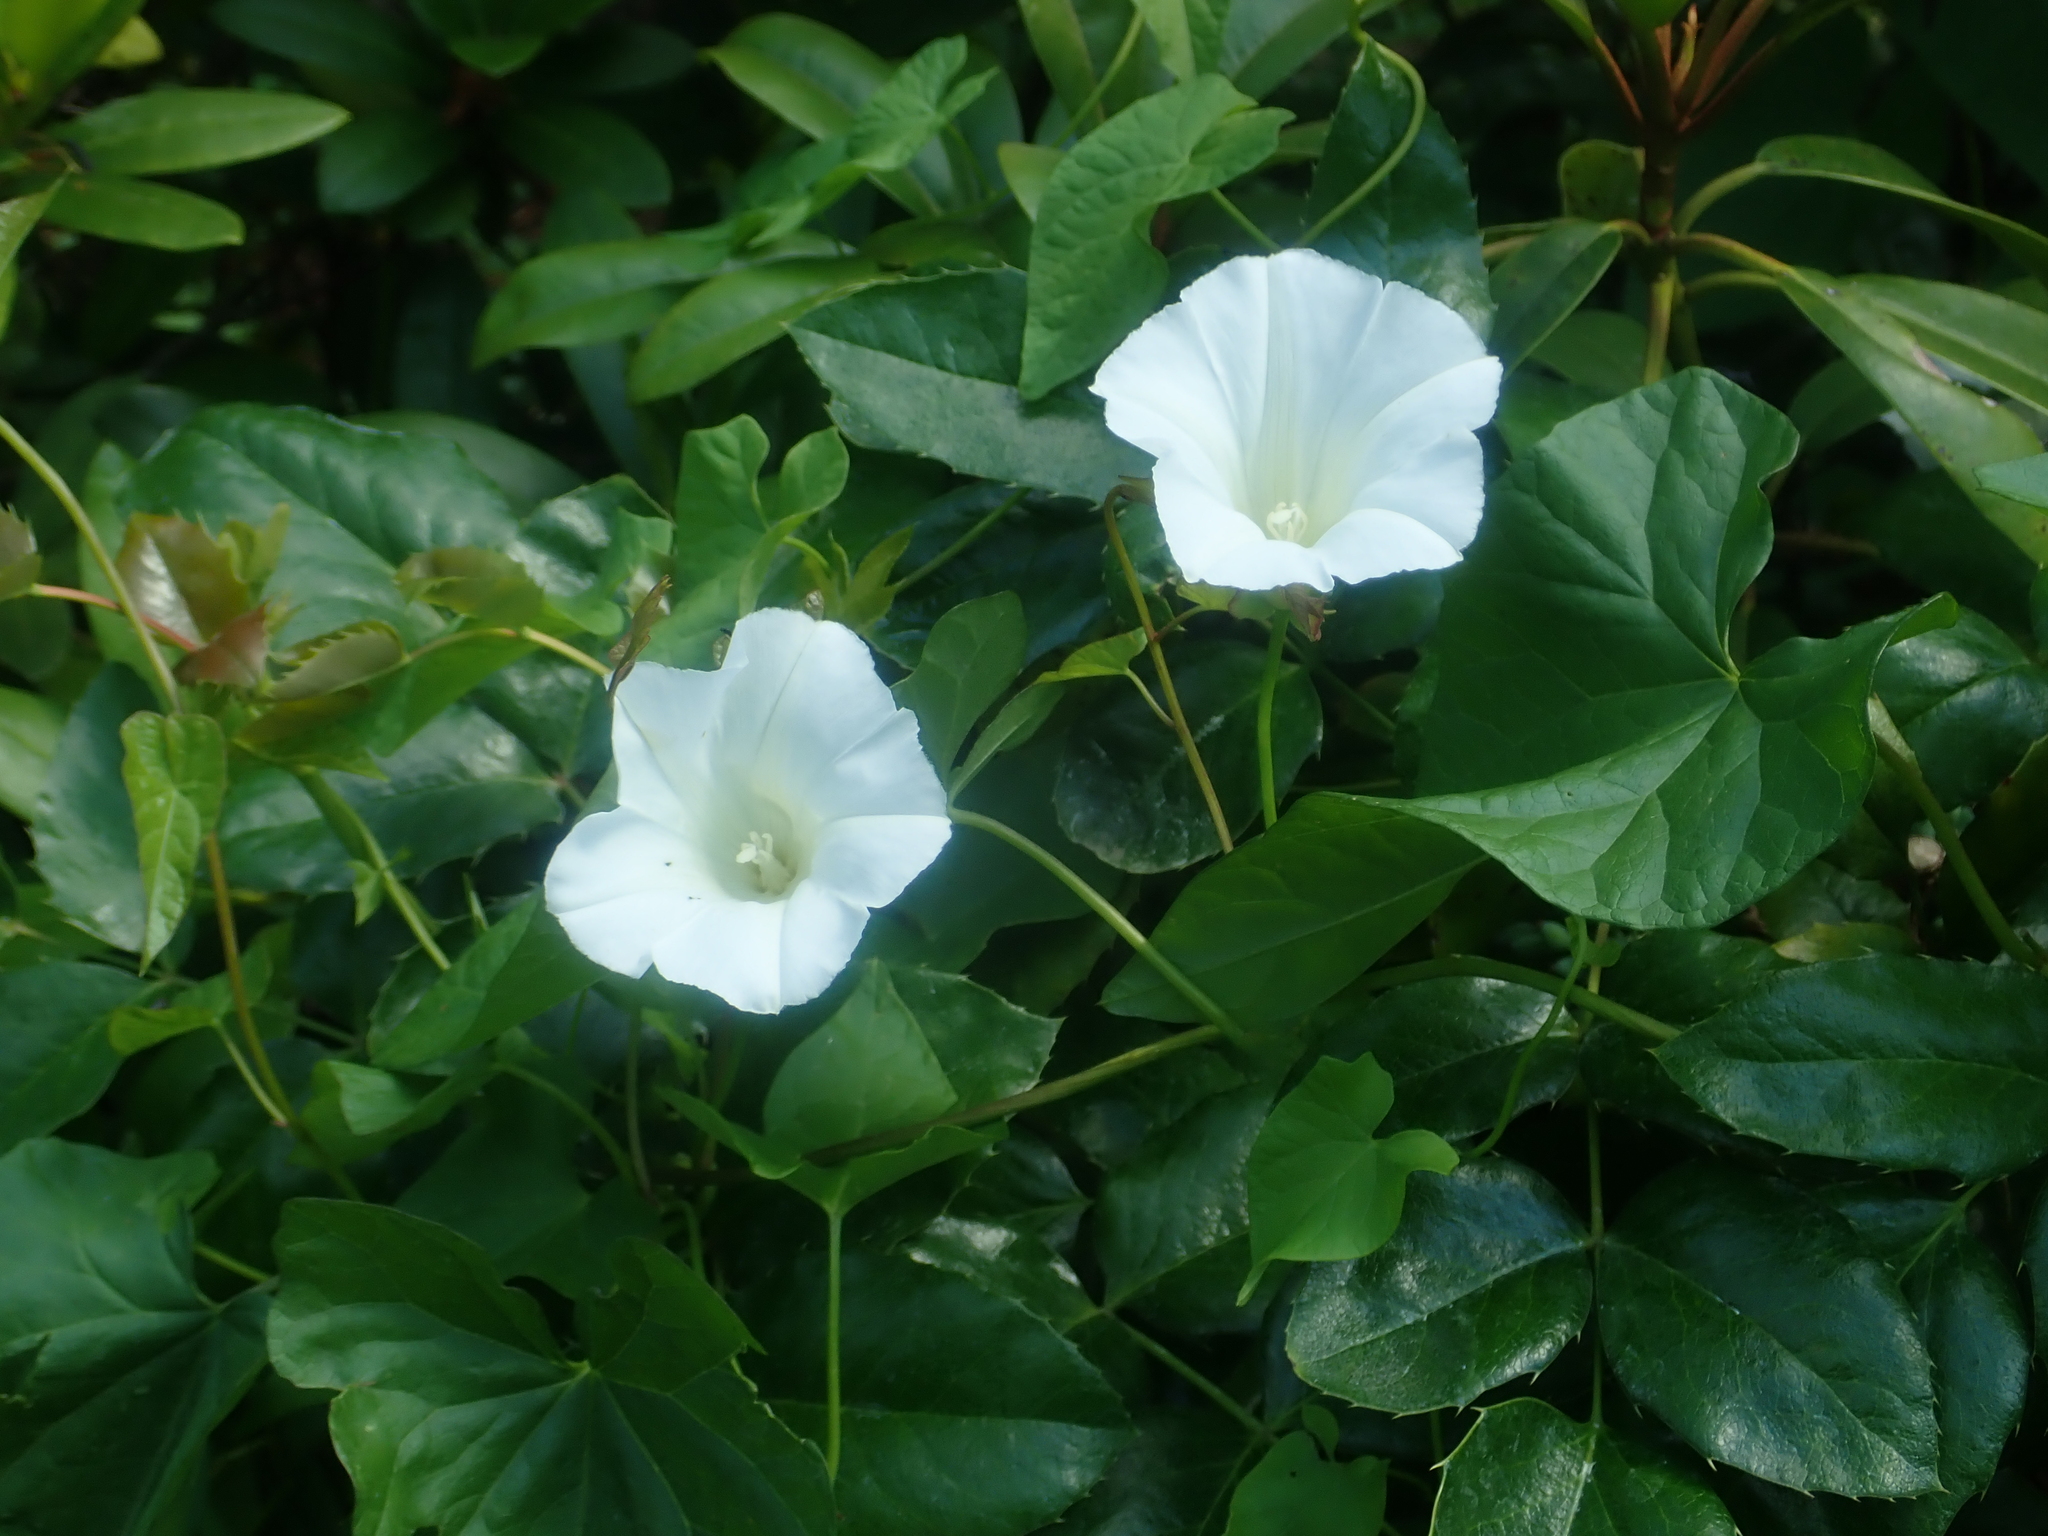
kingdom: Plantae
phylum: Tracheophyta
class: Magnoliopsida
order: Solanales
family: Convolvulaceae
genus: Calystegia
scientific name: Calystegia sepium
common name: Hedge bindweed
